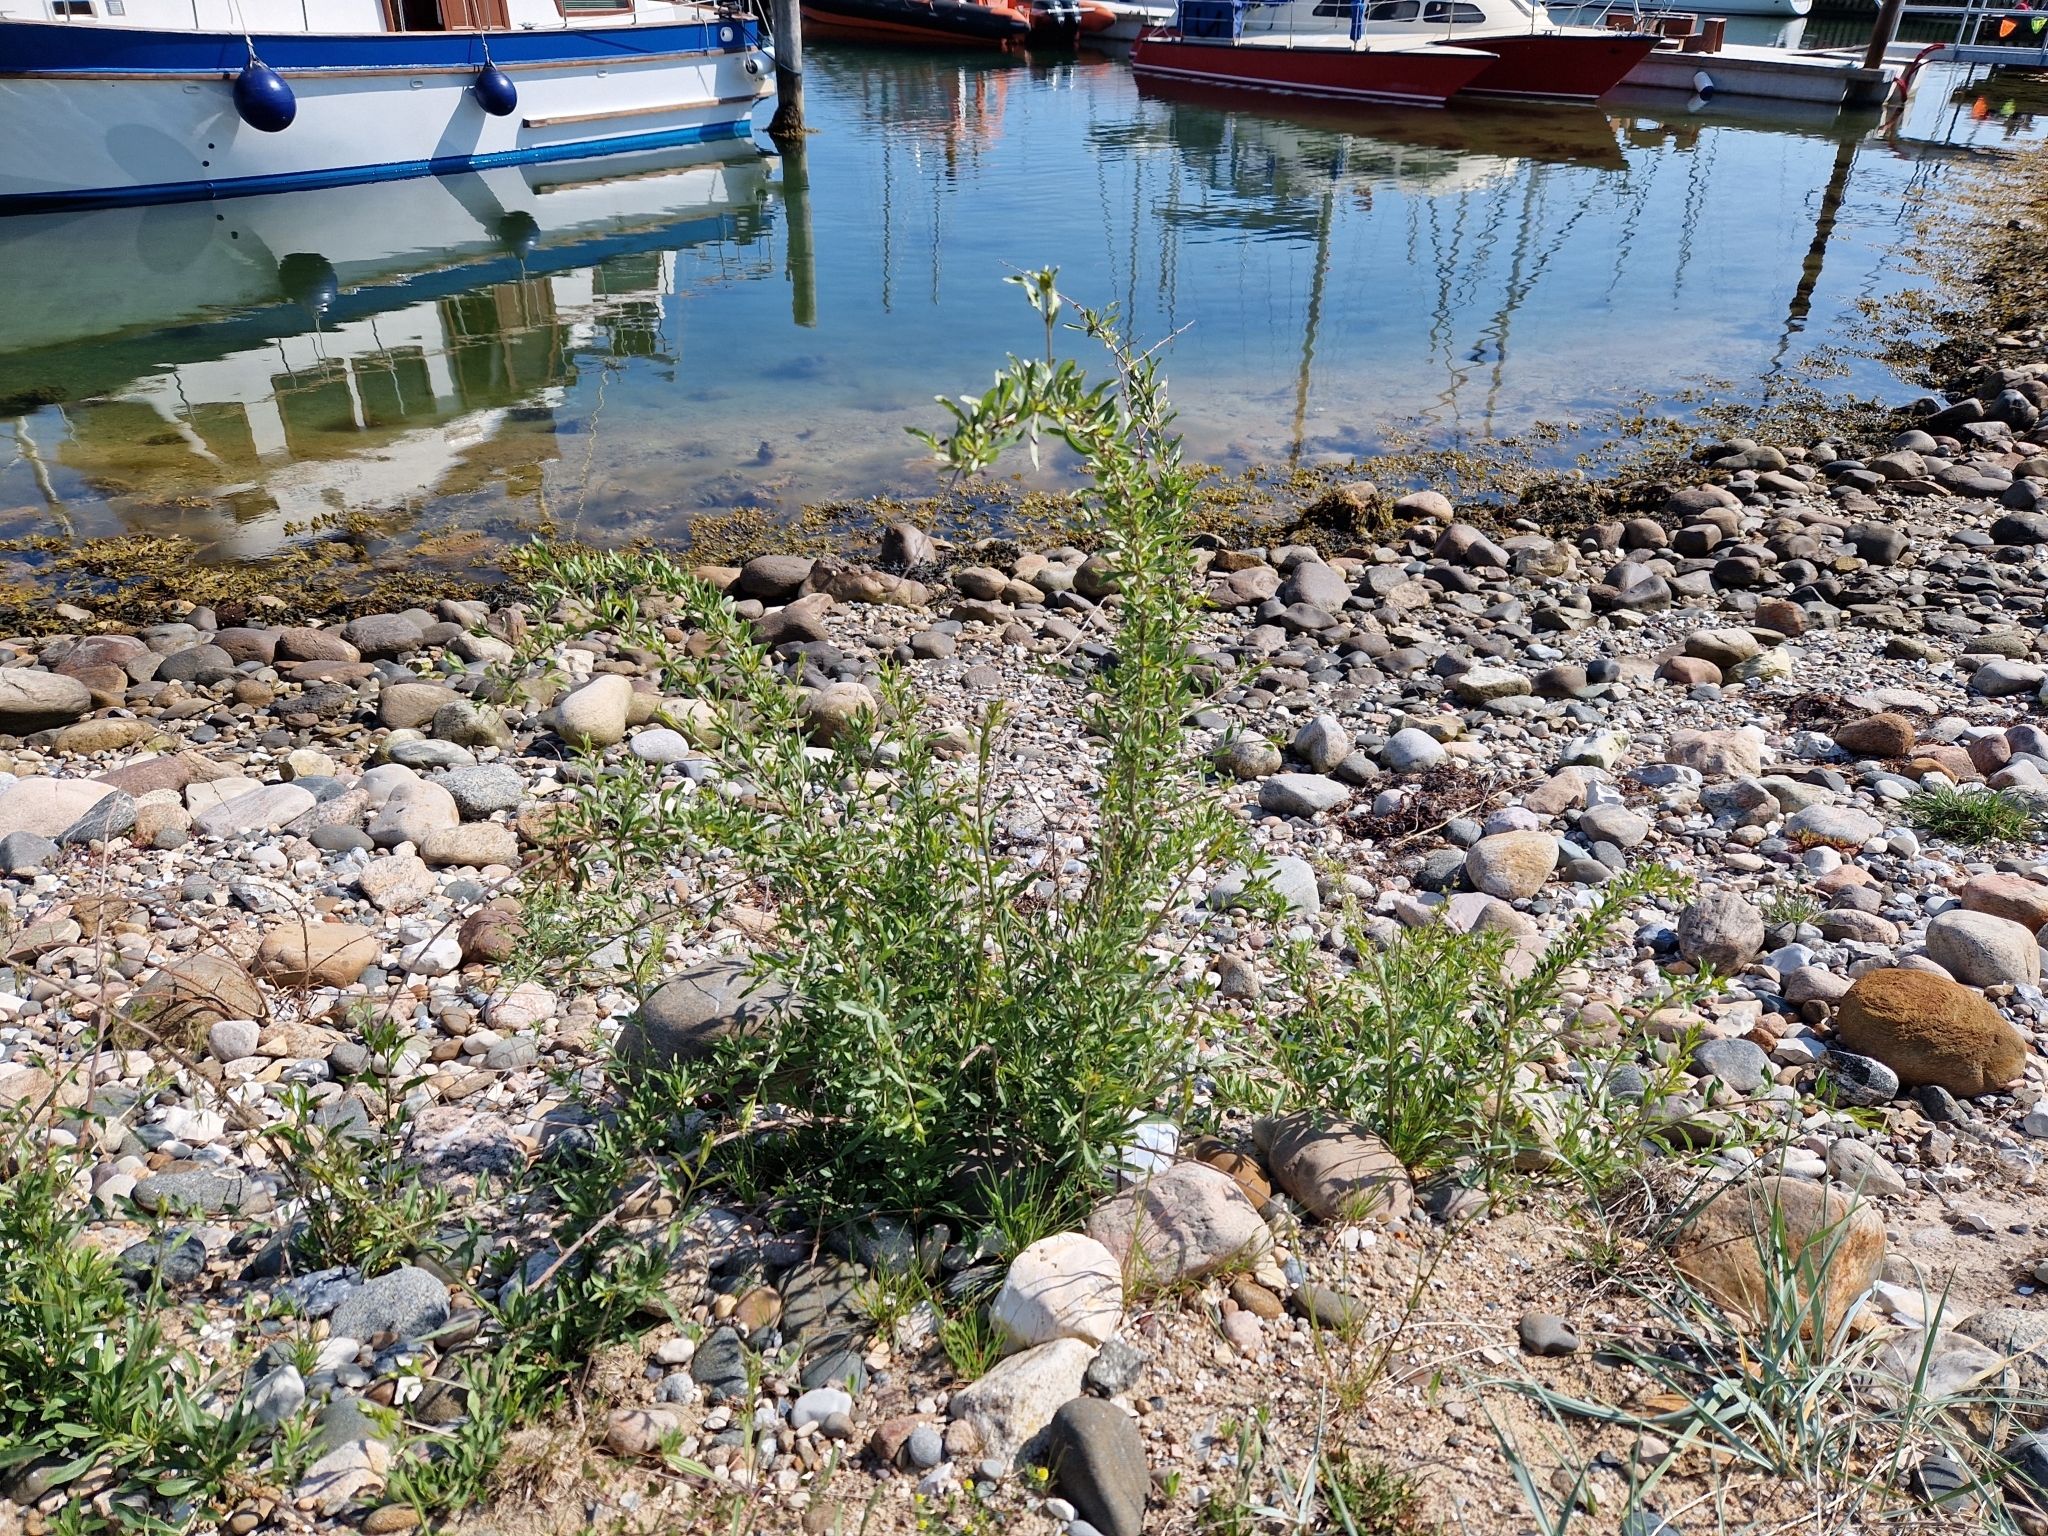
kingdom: Plantae
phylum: Tracheophyta
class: Magnoliopsida
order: Solanales
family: Solanaceae
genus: Lycium
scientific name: Lycium barbarum
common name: Duke of argyll's teaplant
